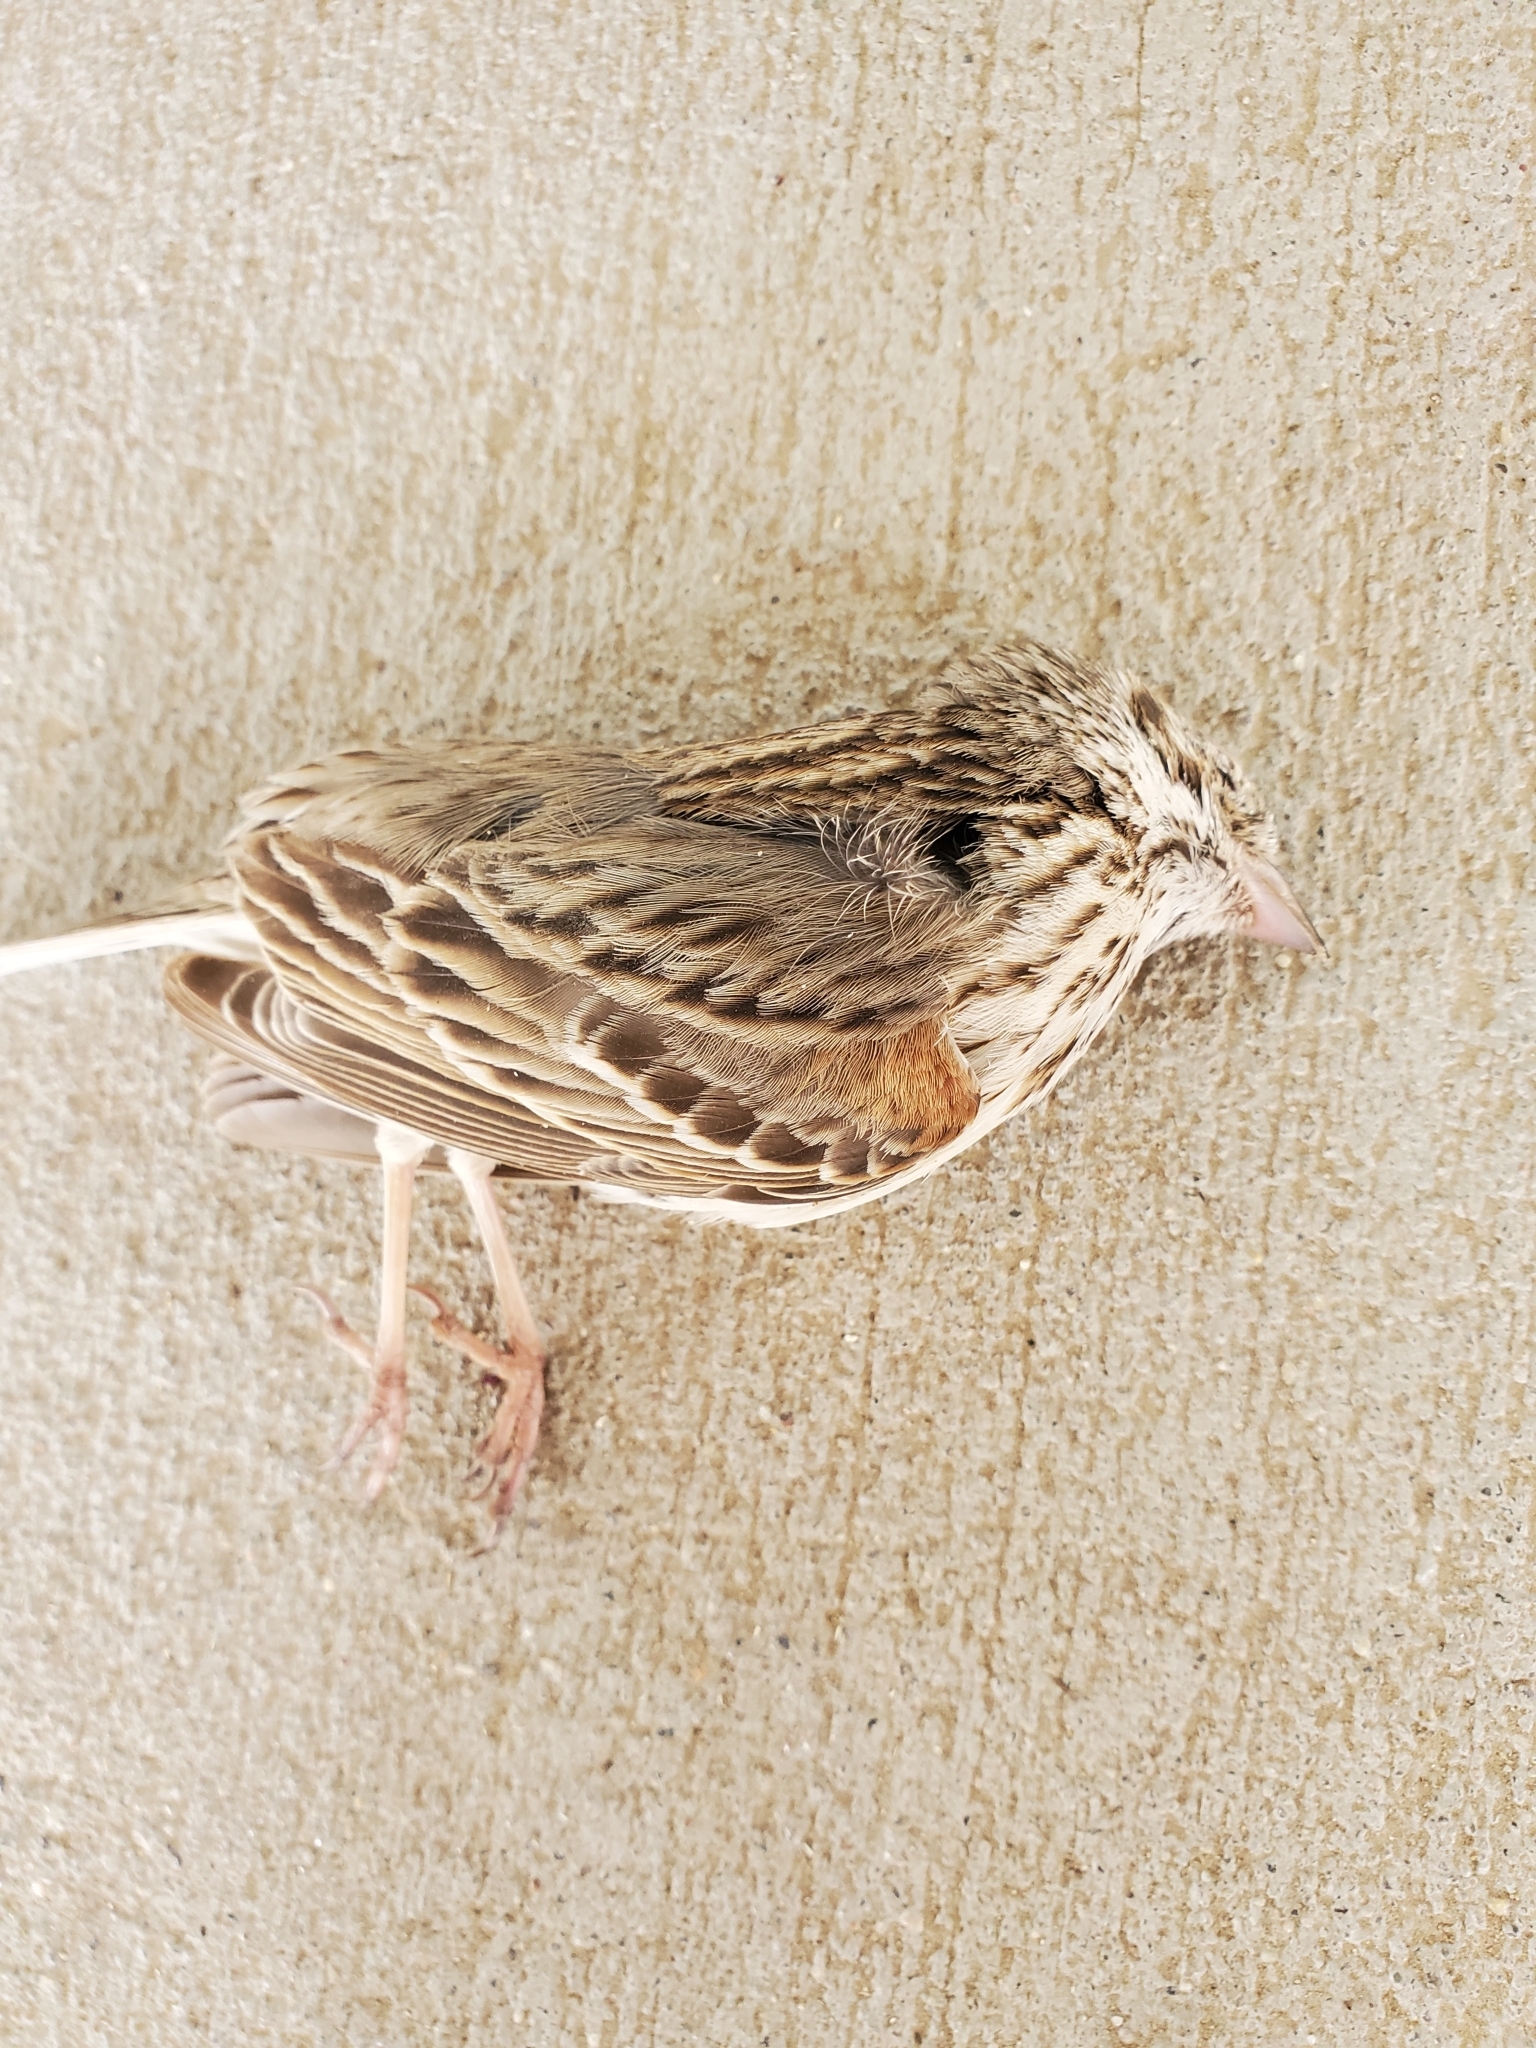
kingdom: Animalia
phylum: Chordata
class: Aves
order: Passeriformes
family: Passerellidae
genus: Pooecetes
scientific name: Pooecetes gramineus
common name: Vesper sparrow
